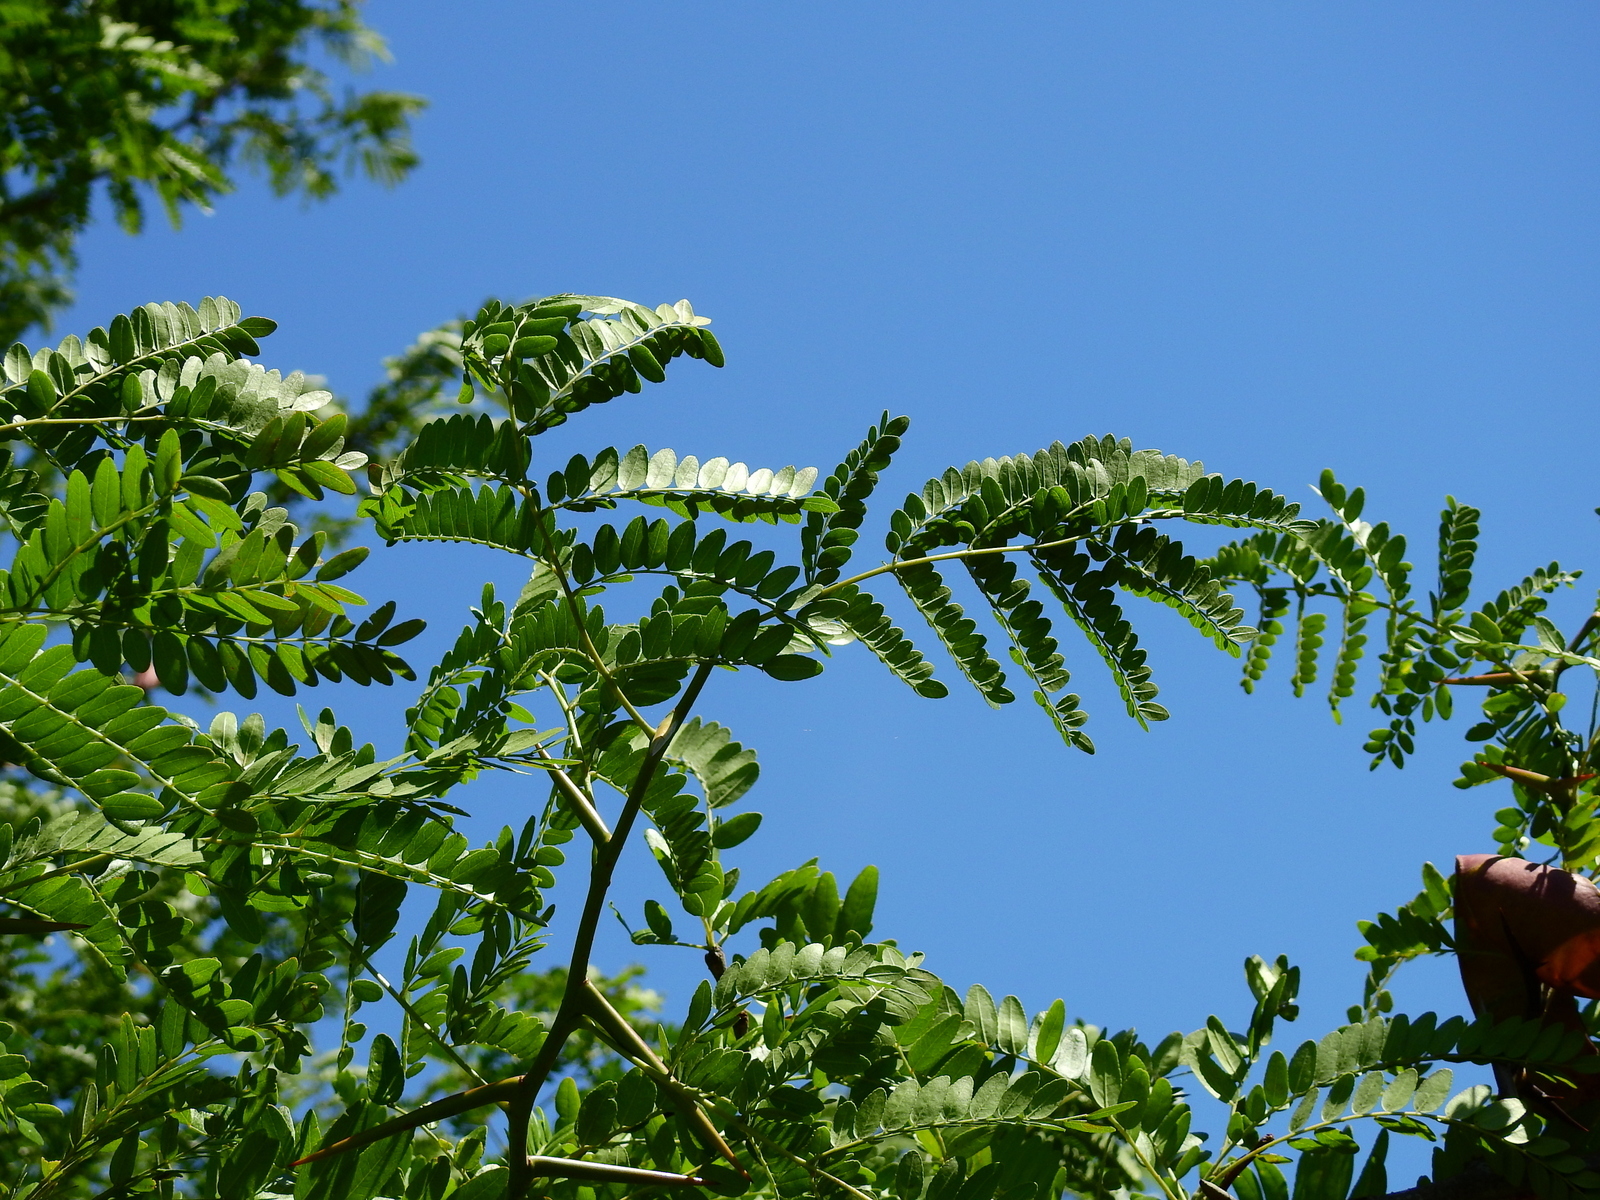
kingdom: Plantae
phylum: Tracheophyta
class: Magnoliopsida
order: Fabales
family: Fabaceae
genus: Gleditsia
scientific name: Gleditsia triacanthos
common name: Common honeylocust
